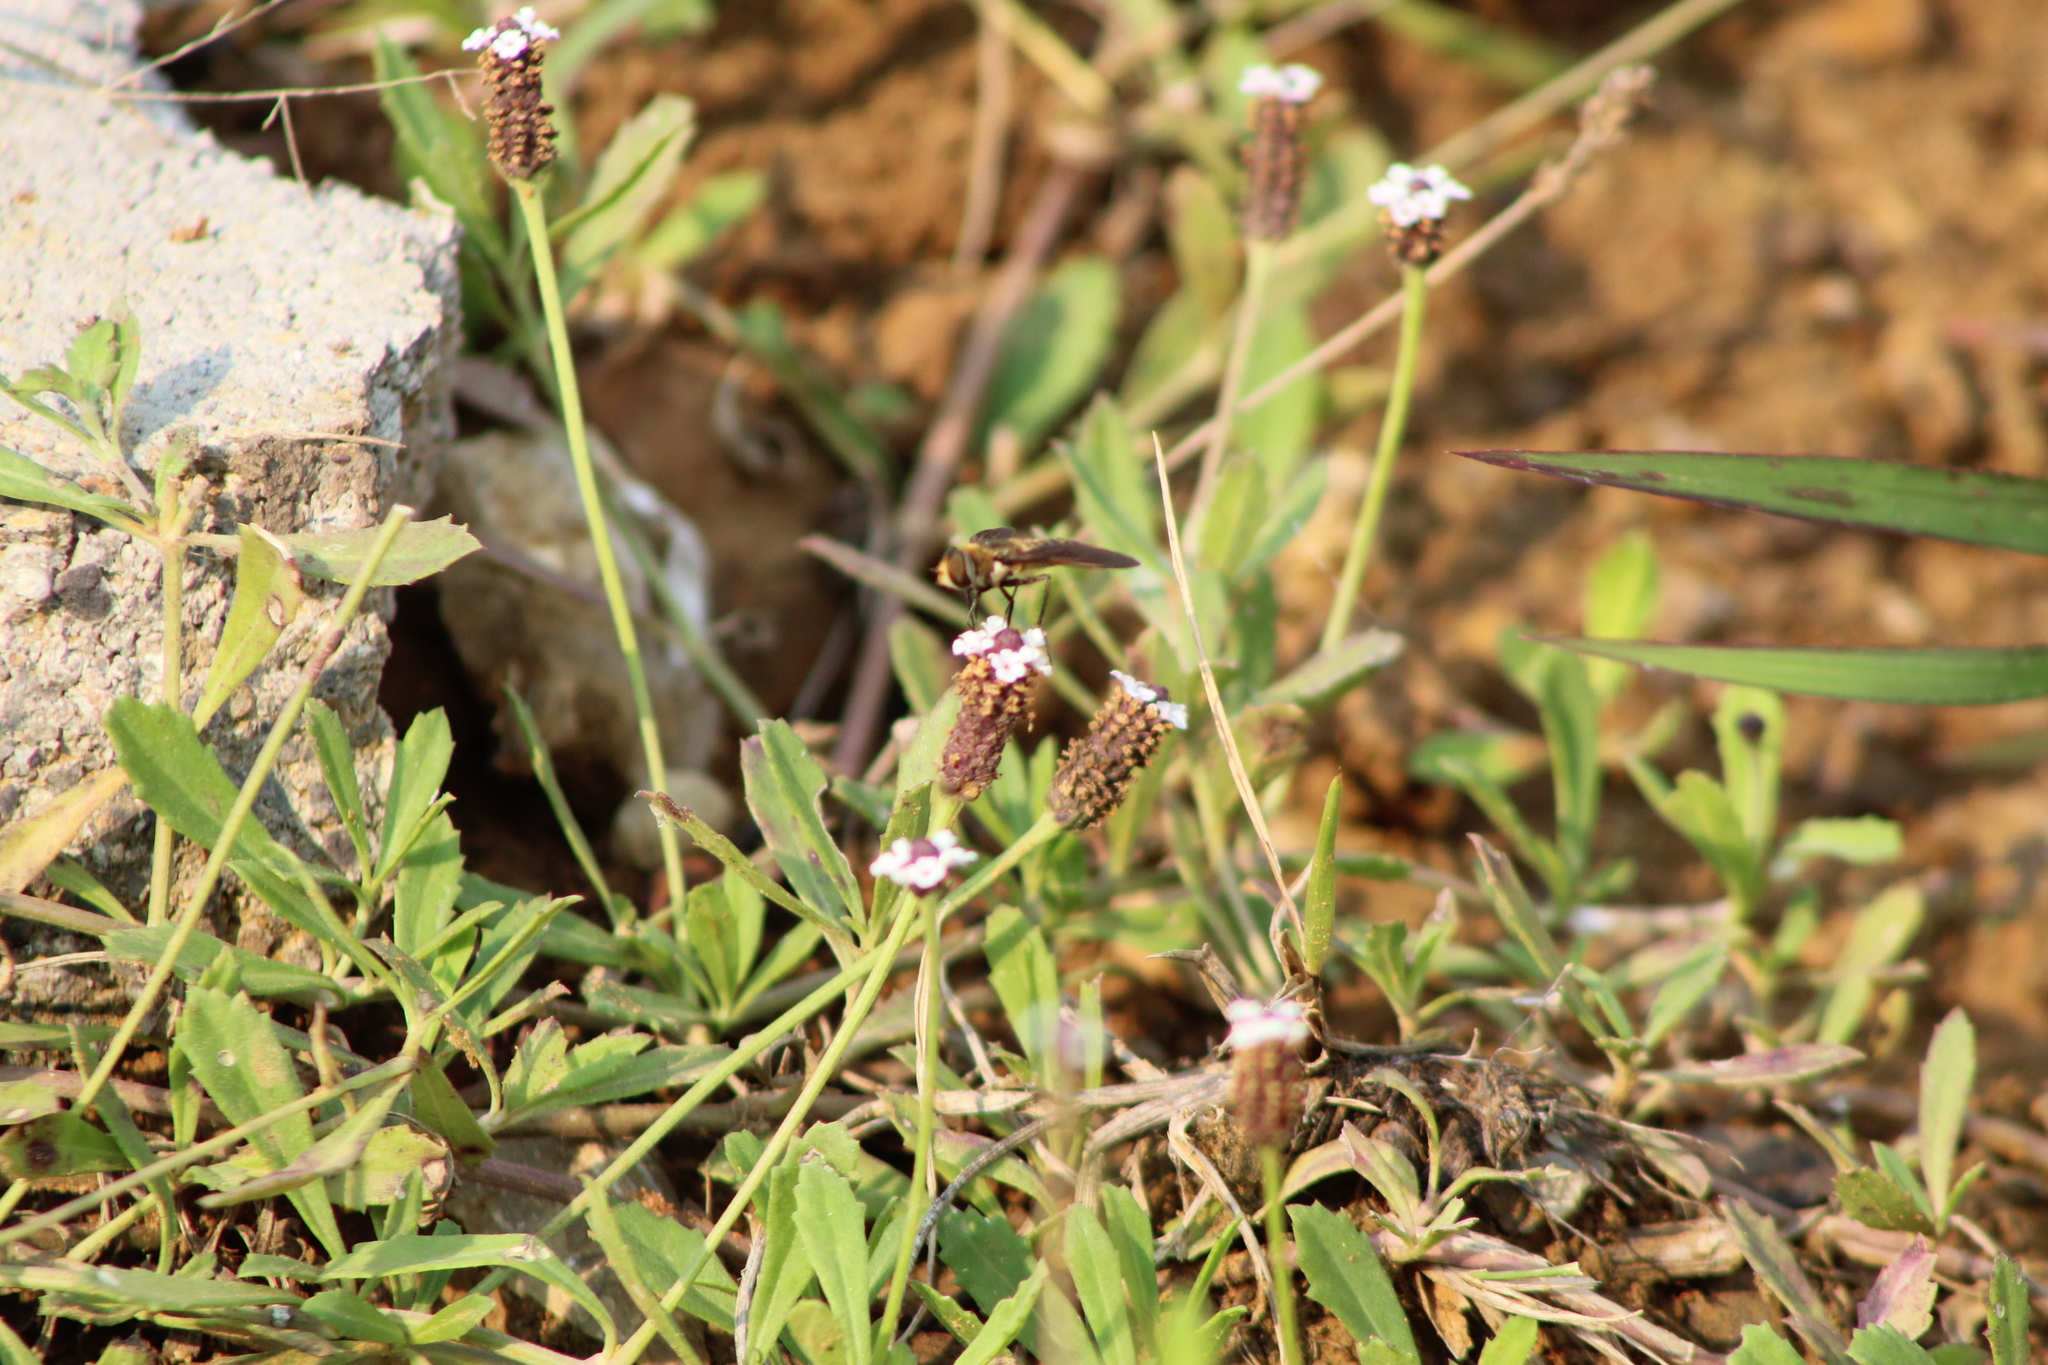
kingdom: Animalia
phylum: Arthropoda
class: Insecta
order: Diptera
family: Bombyliidae
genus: Poecilanthrax
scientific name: Poecilanthrax lucifer
